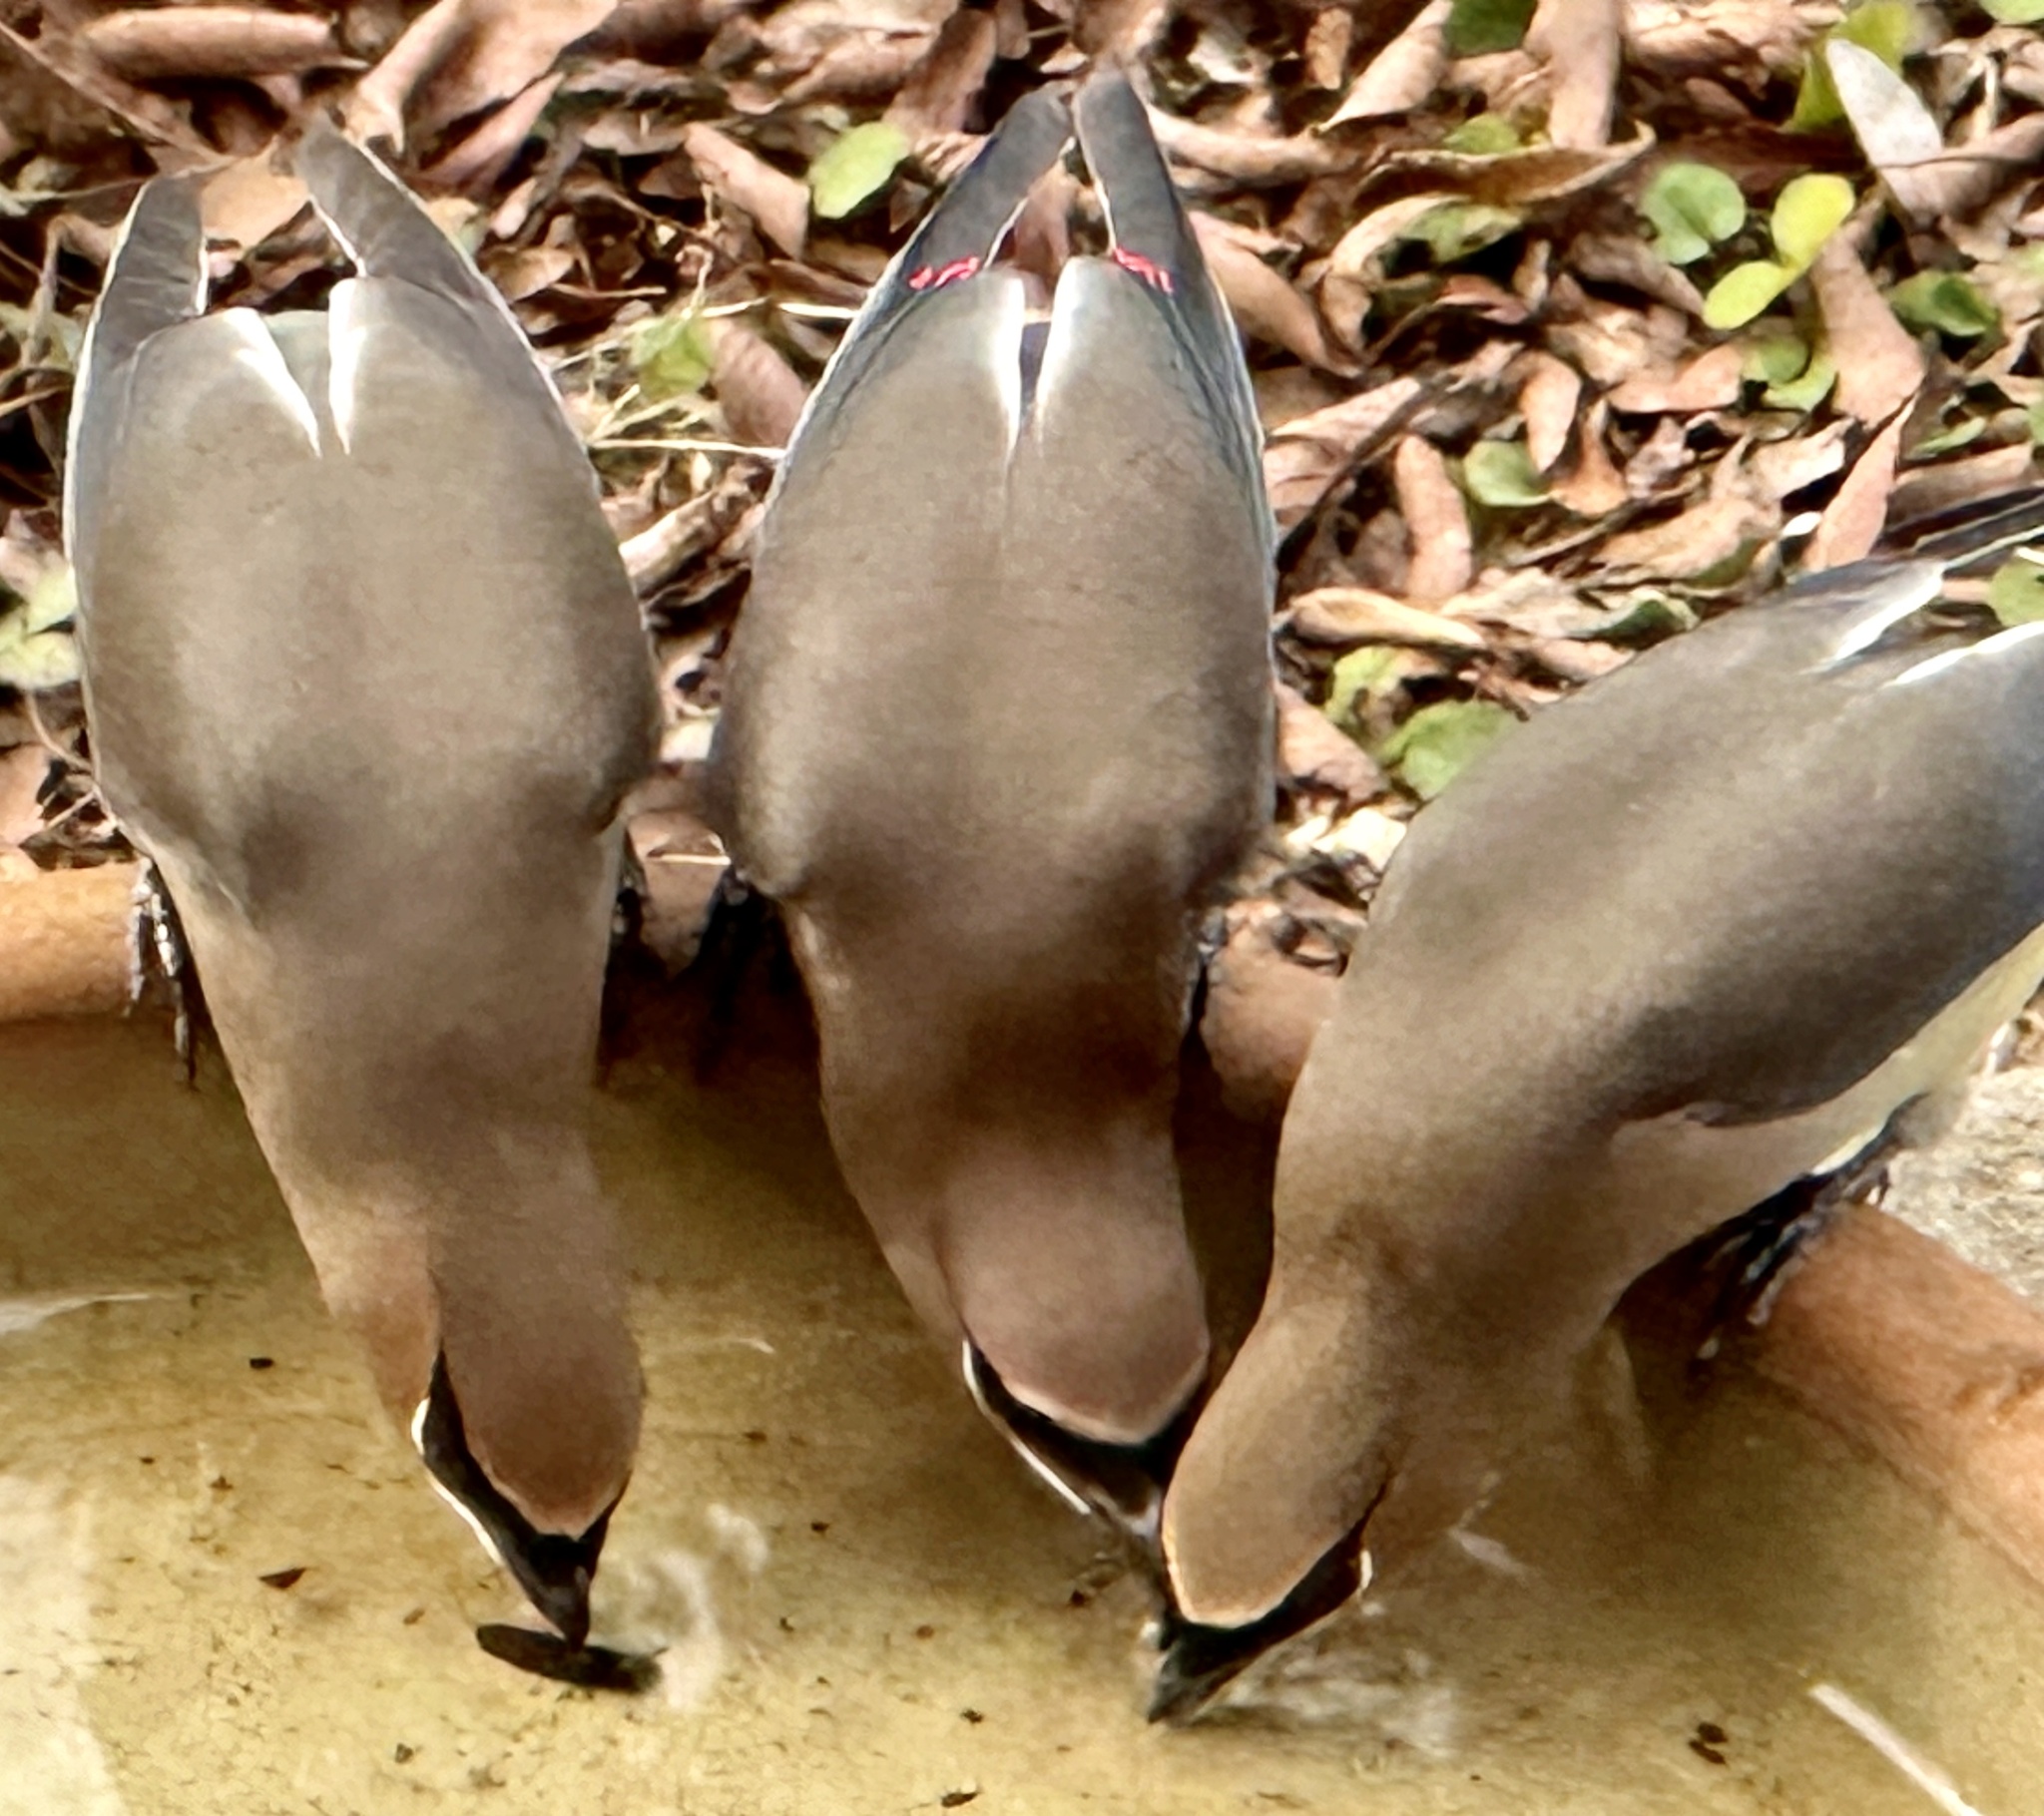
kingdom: Animalia
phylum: Chordata
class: Aves
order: Passeriformes
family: Bombycillidae
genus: Bombycilla
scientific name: Bombycilla cedrorum
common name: Cedar waxwing
